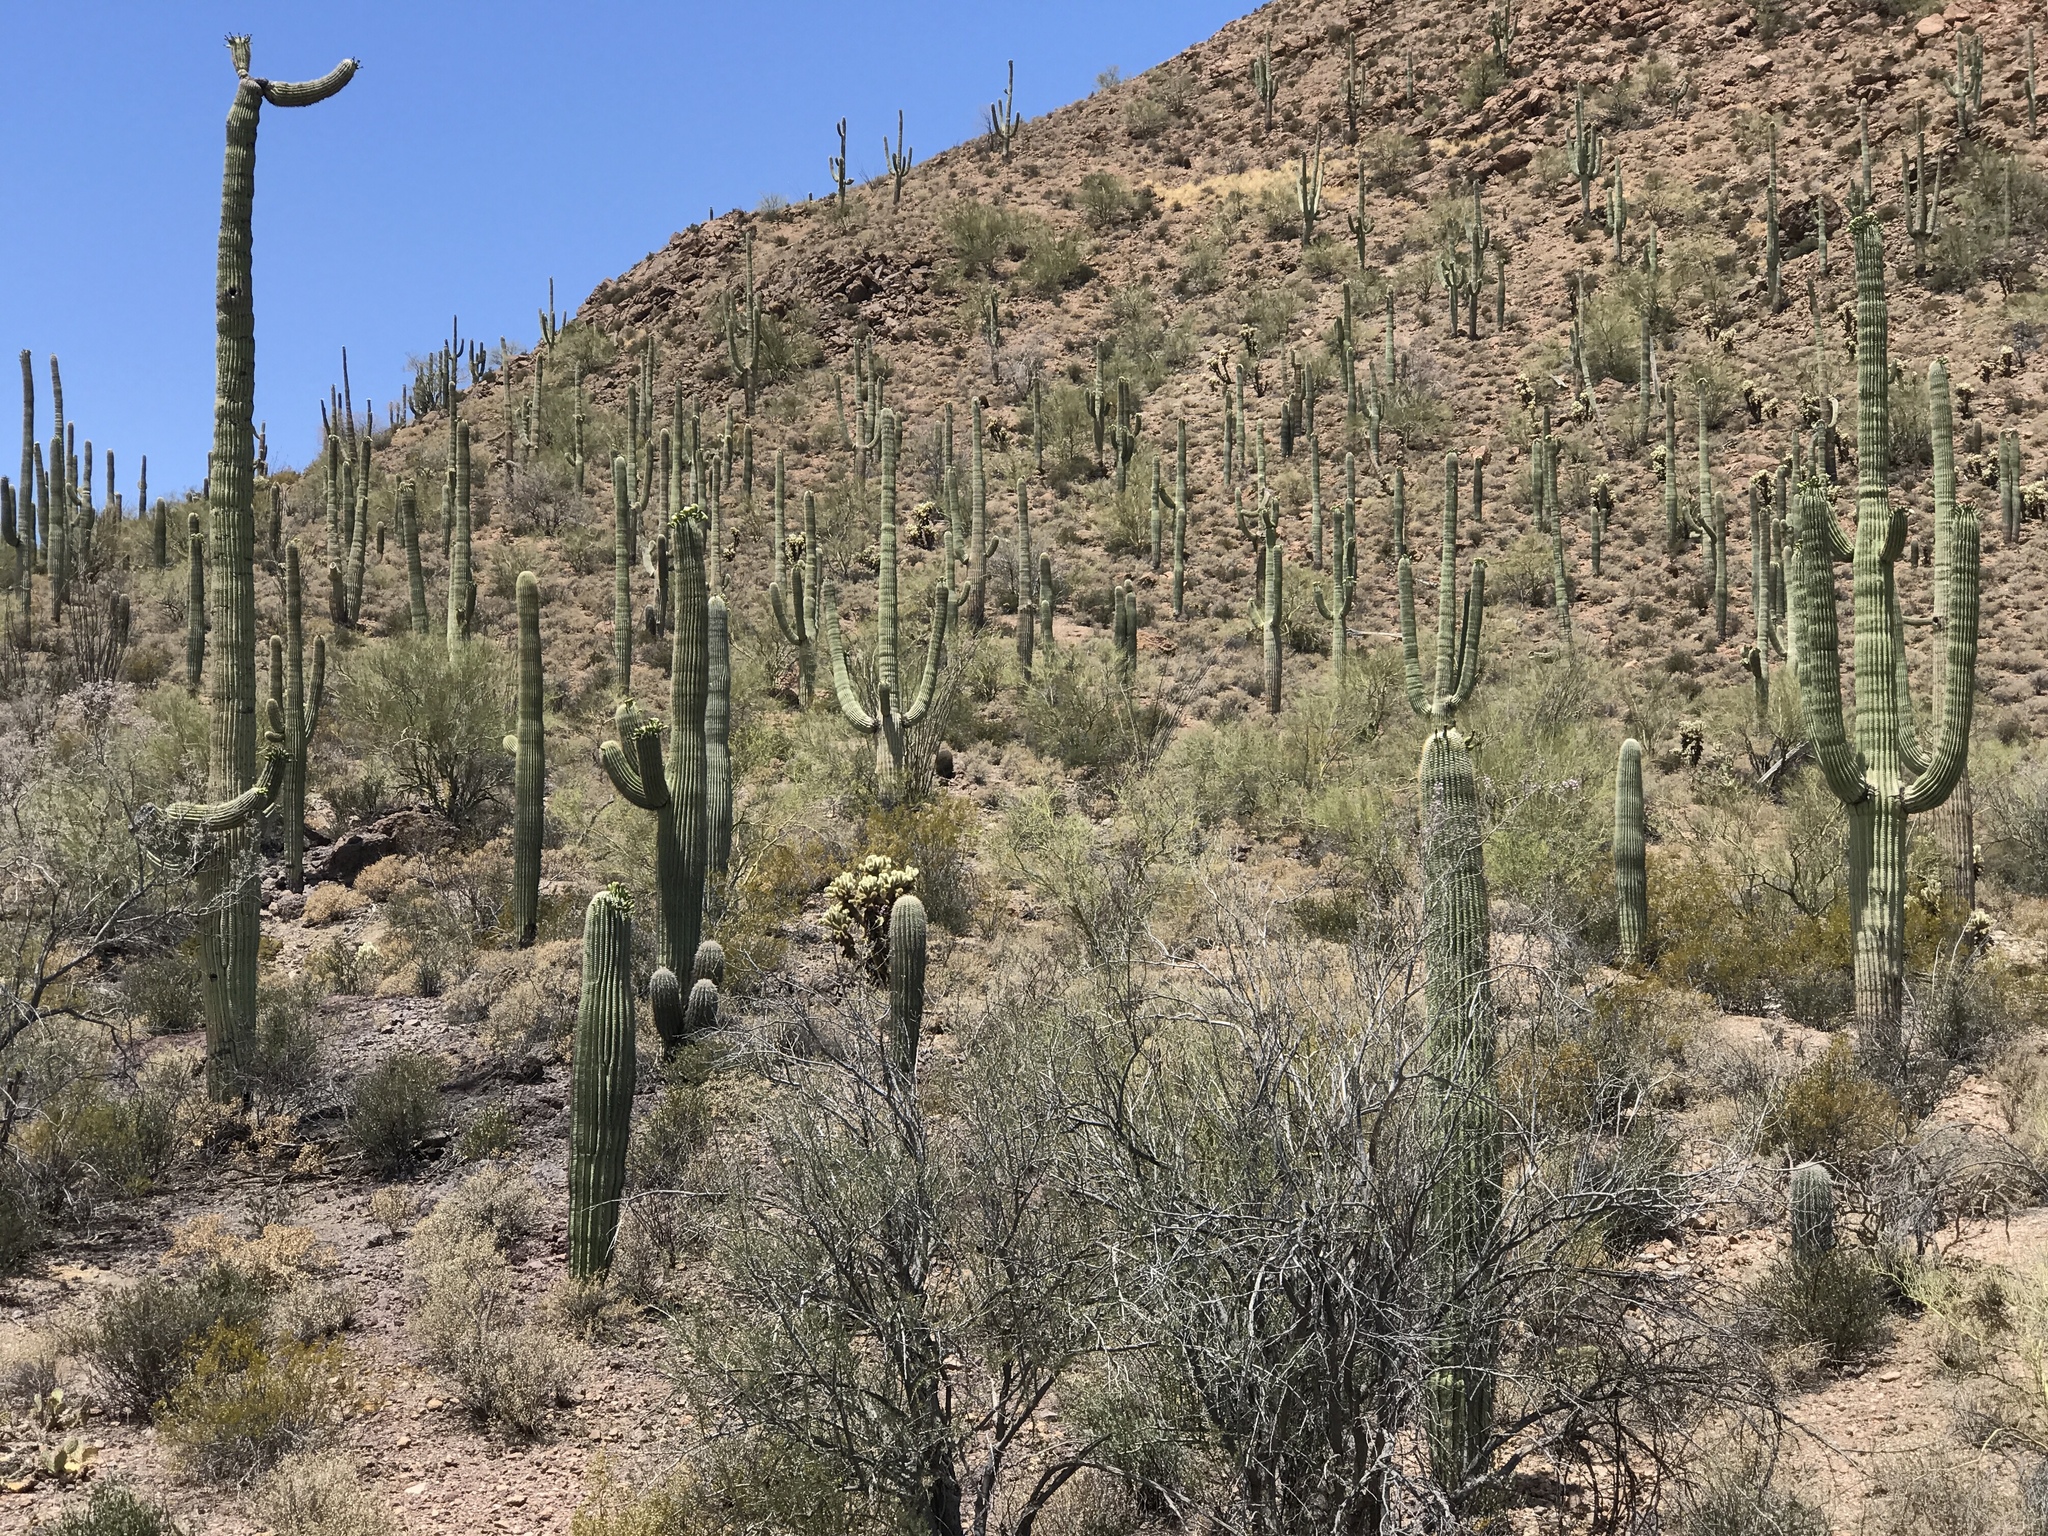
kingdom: Plantae
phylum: Tracheophyta
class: Magnoliopsida
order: Caryophyllales
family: Cactaceae
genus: Carnegiea
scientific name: Carnegiea gigantea
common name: Saguaro
